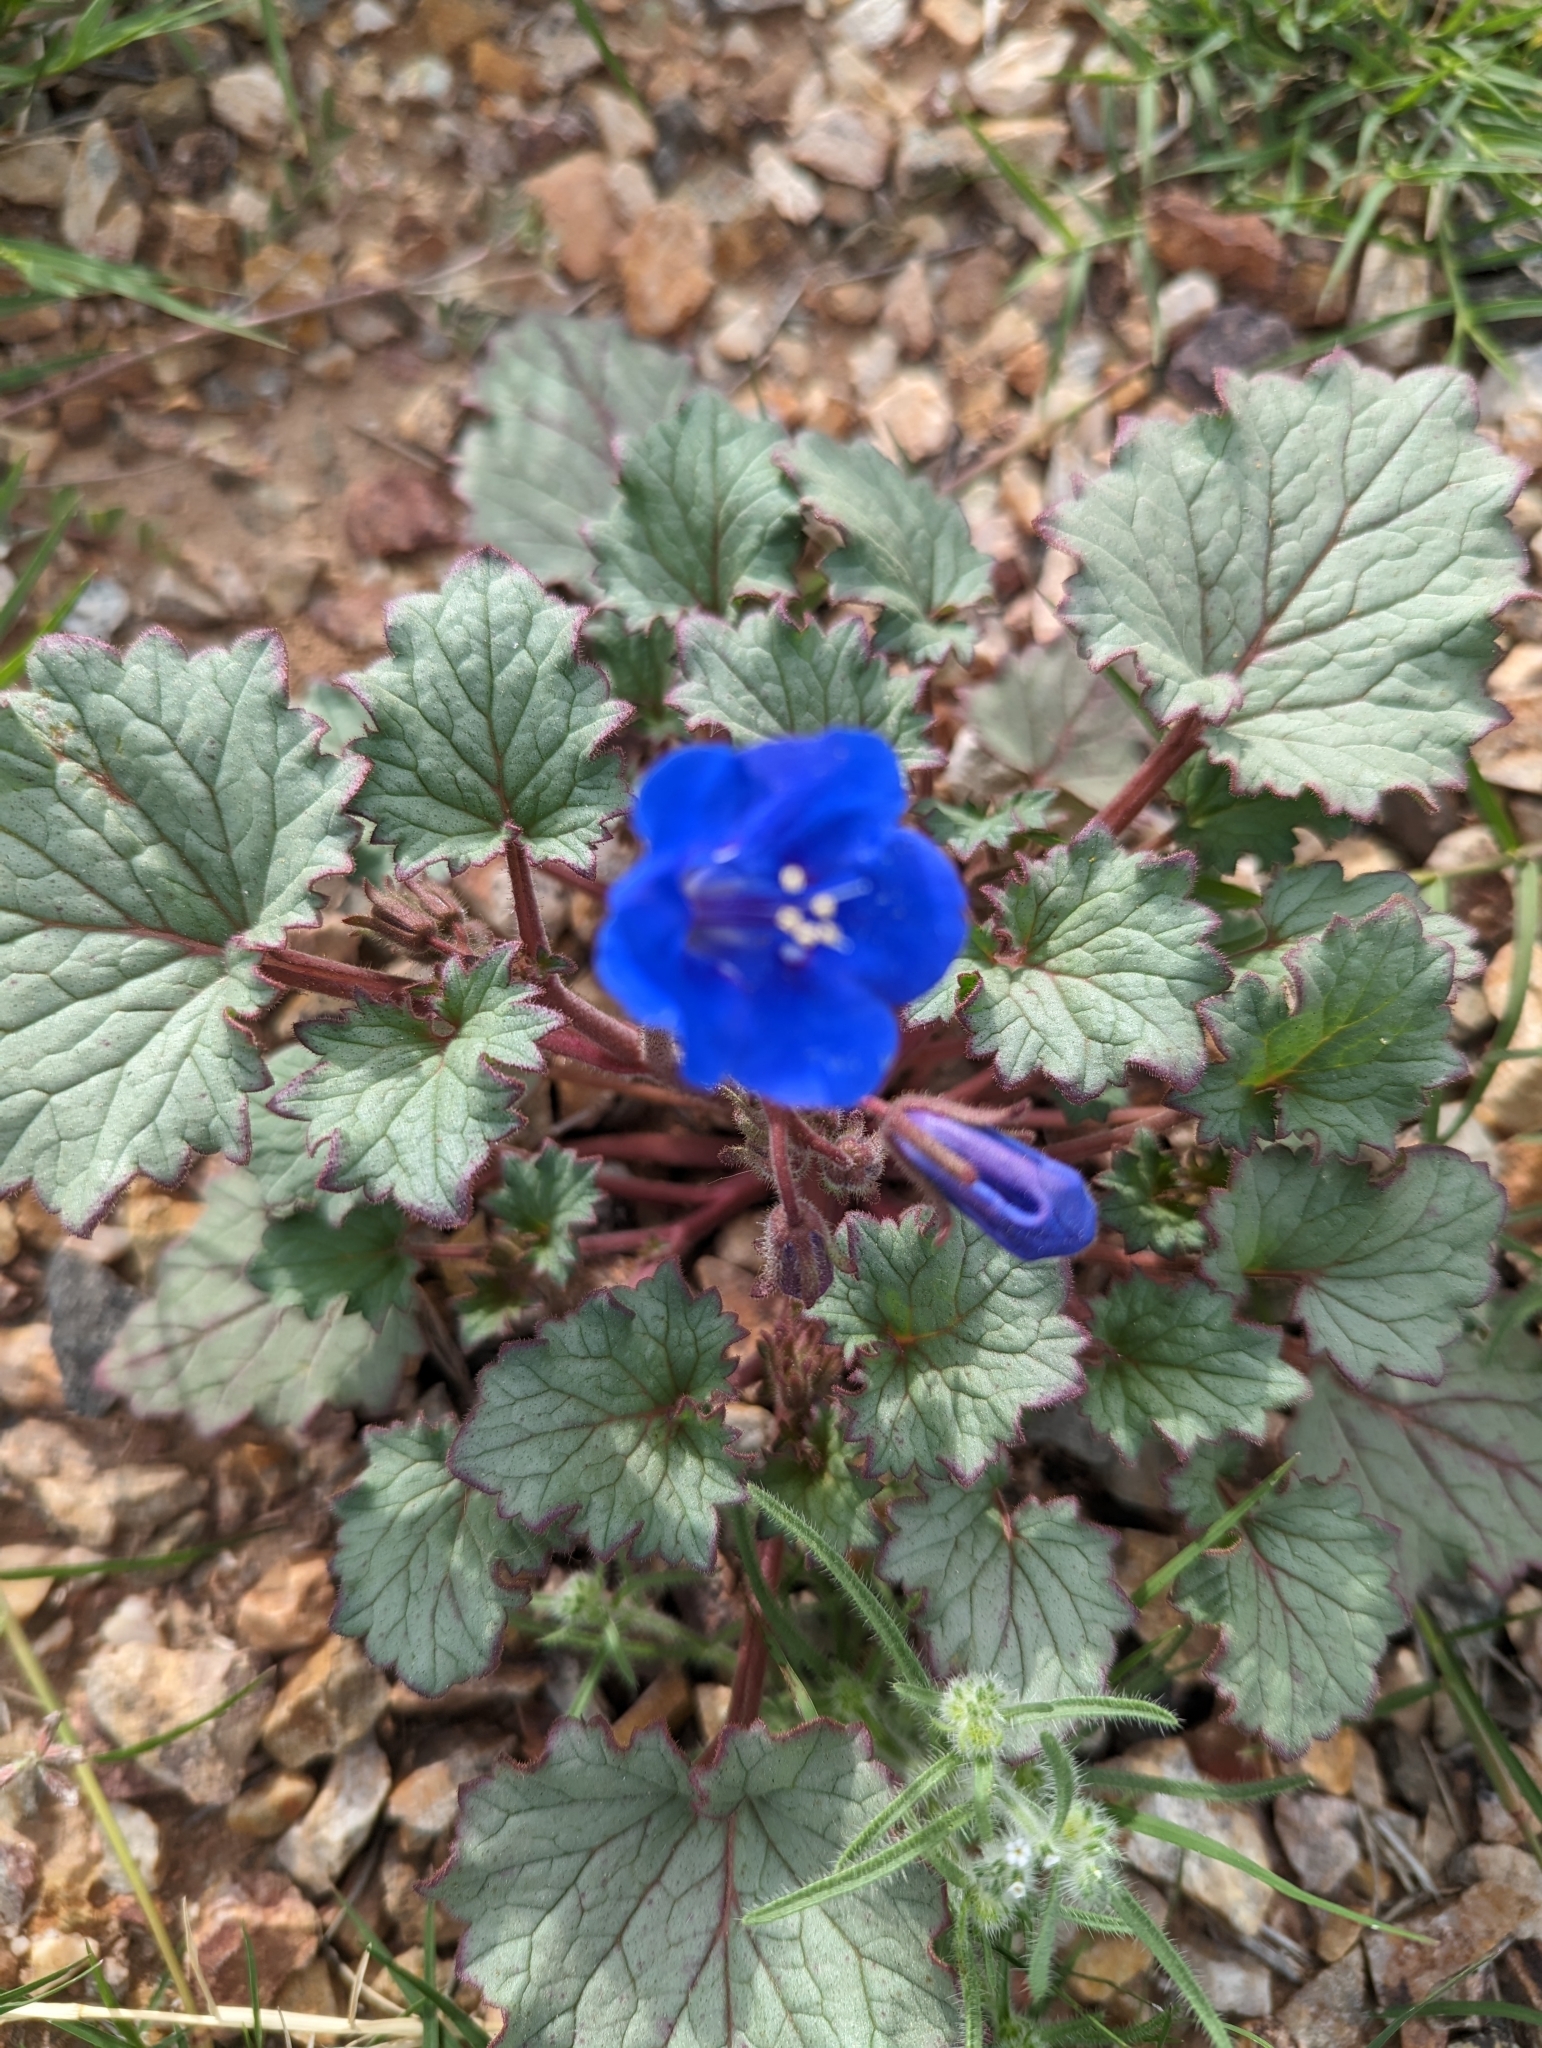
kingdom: Plantae
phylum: Tracheophyta
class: Magnoliopsida
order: Boraginales
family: Hydrophyllaceae
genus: Phacelia
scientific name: Phacelia campanularia
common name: California bluebell
